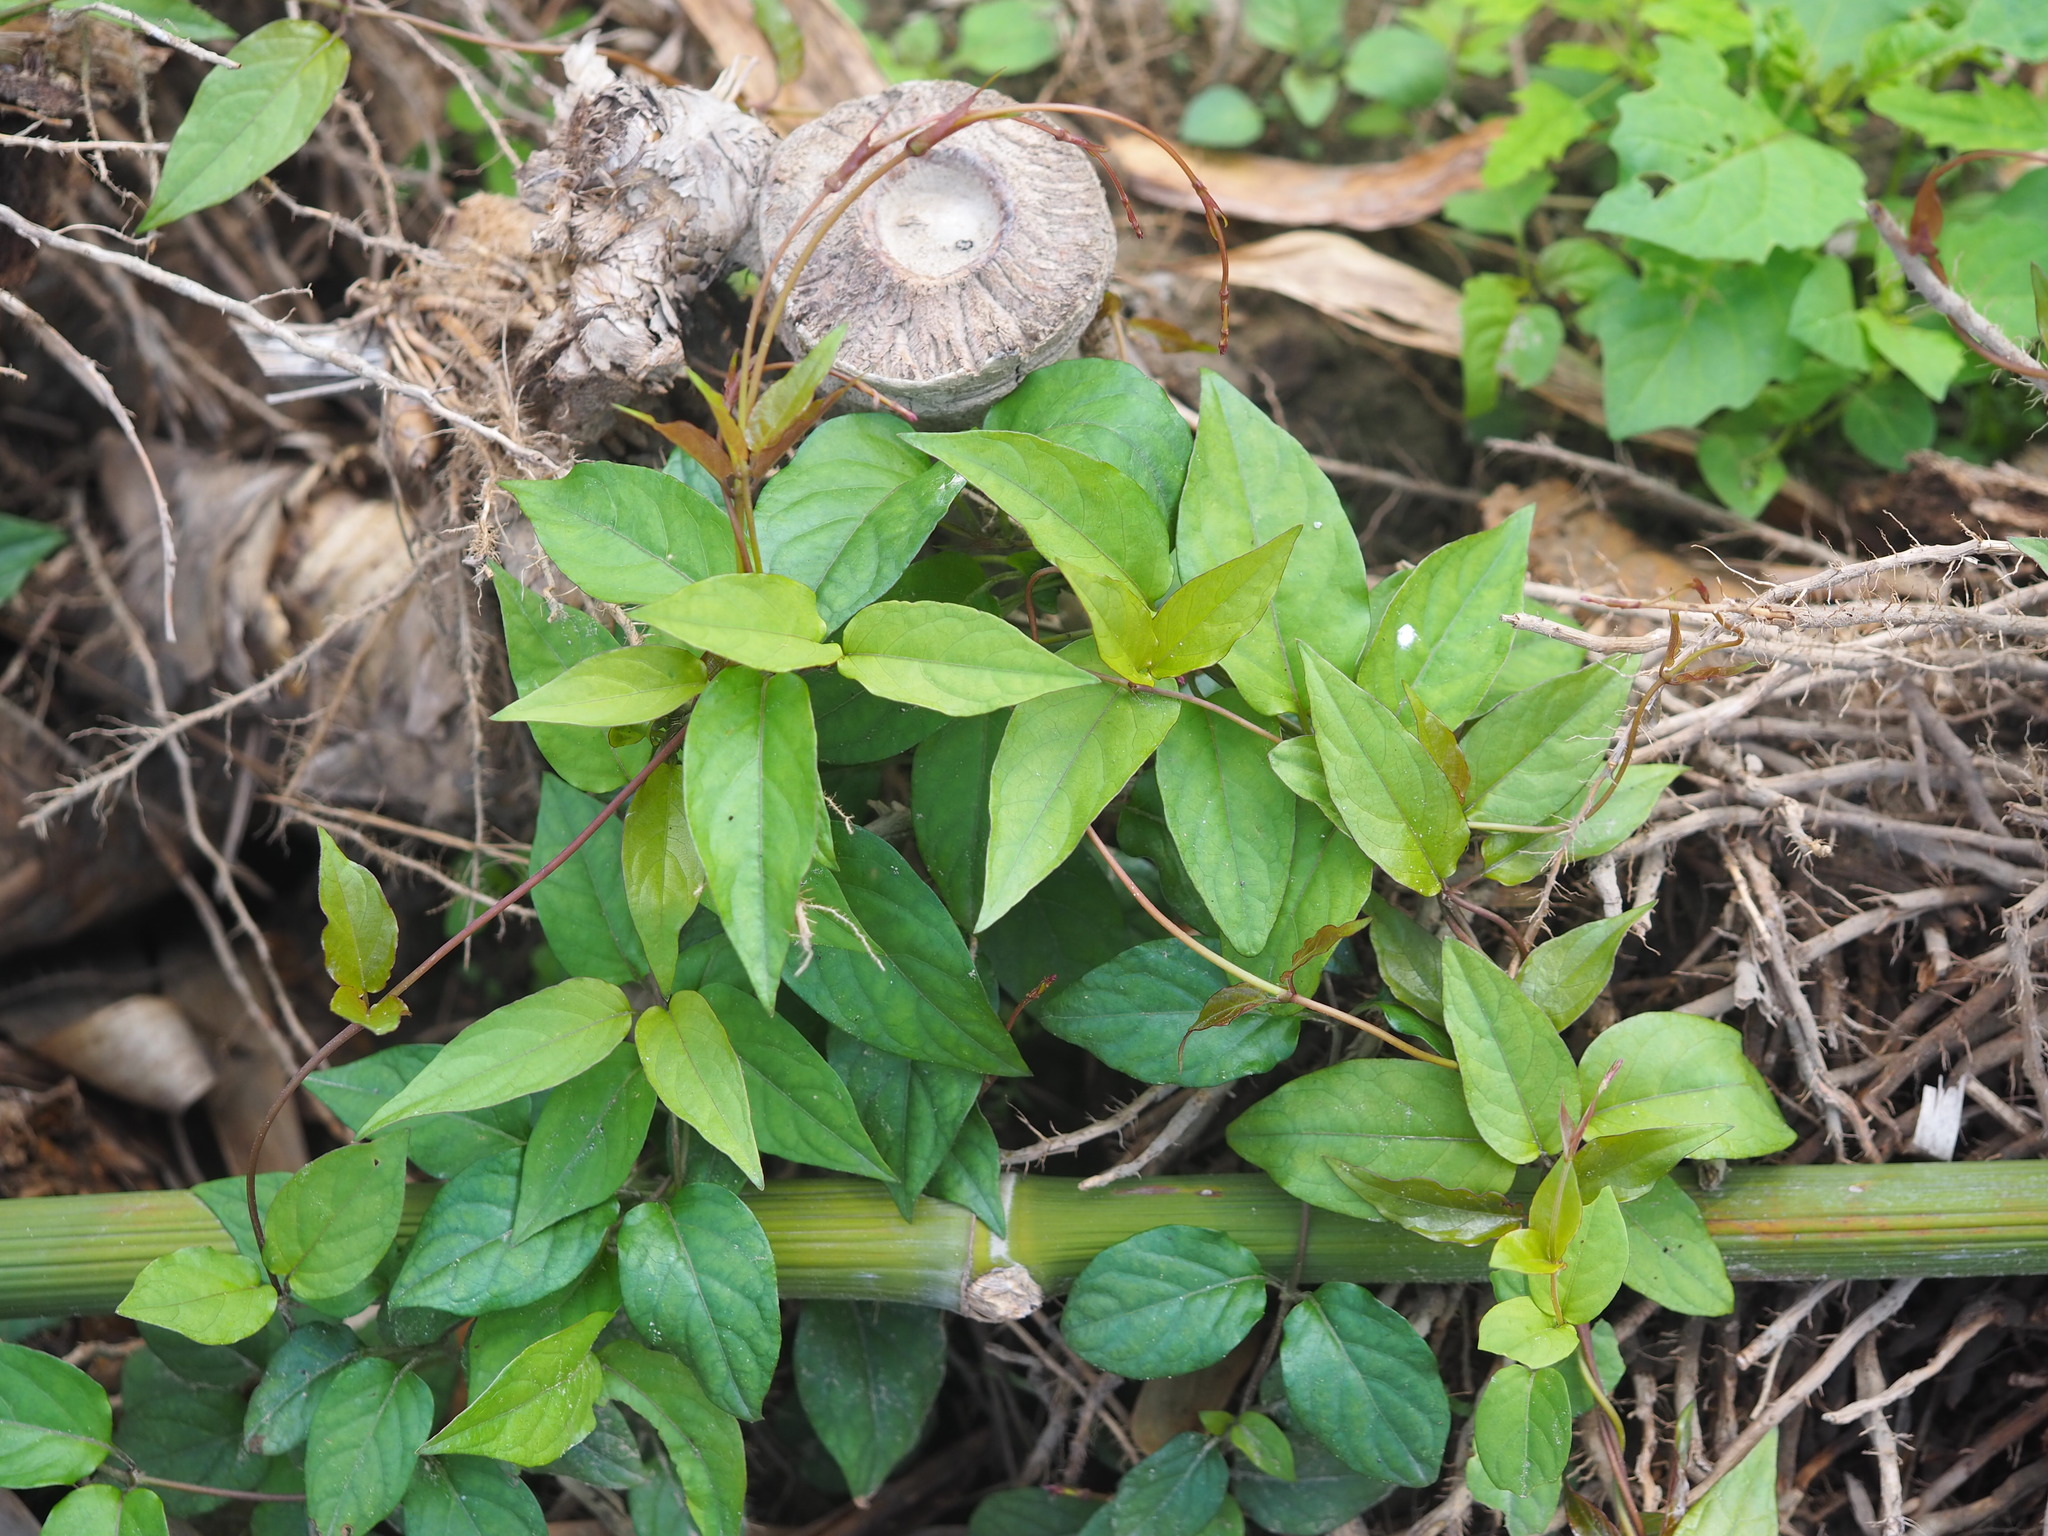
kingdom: Plantae
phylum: Tracheophyta
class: Magnoliopsida
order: Gentianales
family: Rubiaceae
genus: Paederia
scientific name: Paederia foetida
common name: Stinkvine
